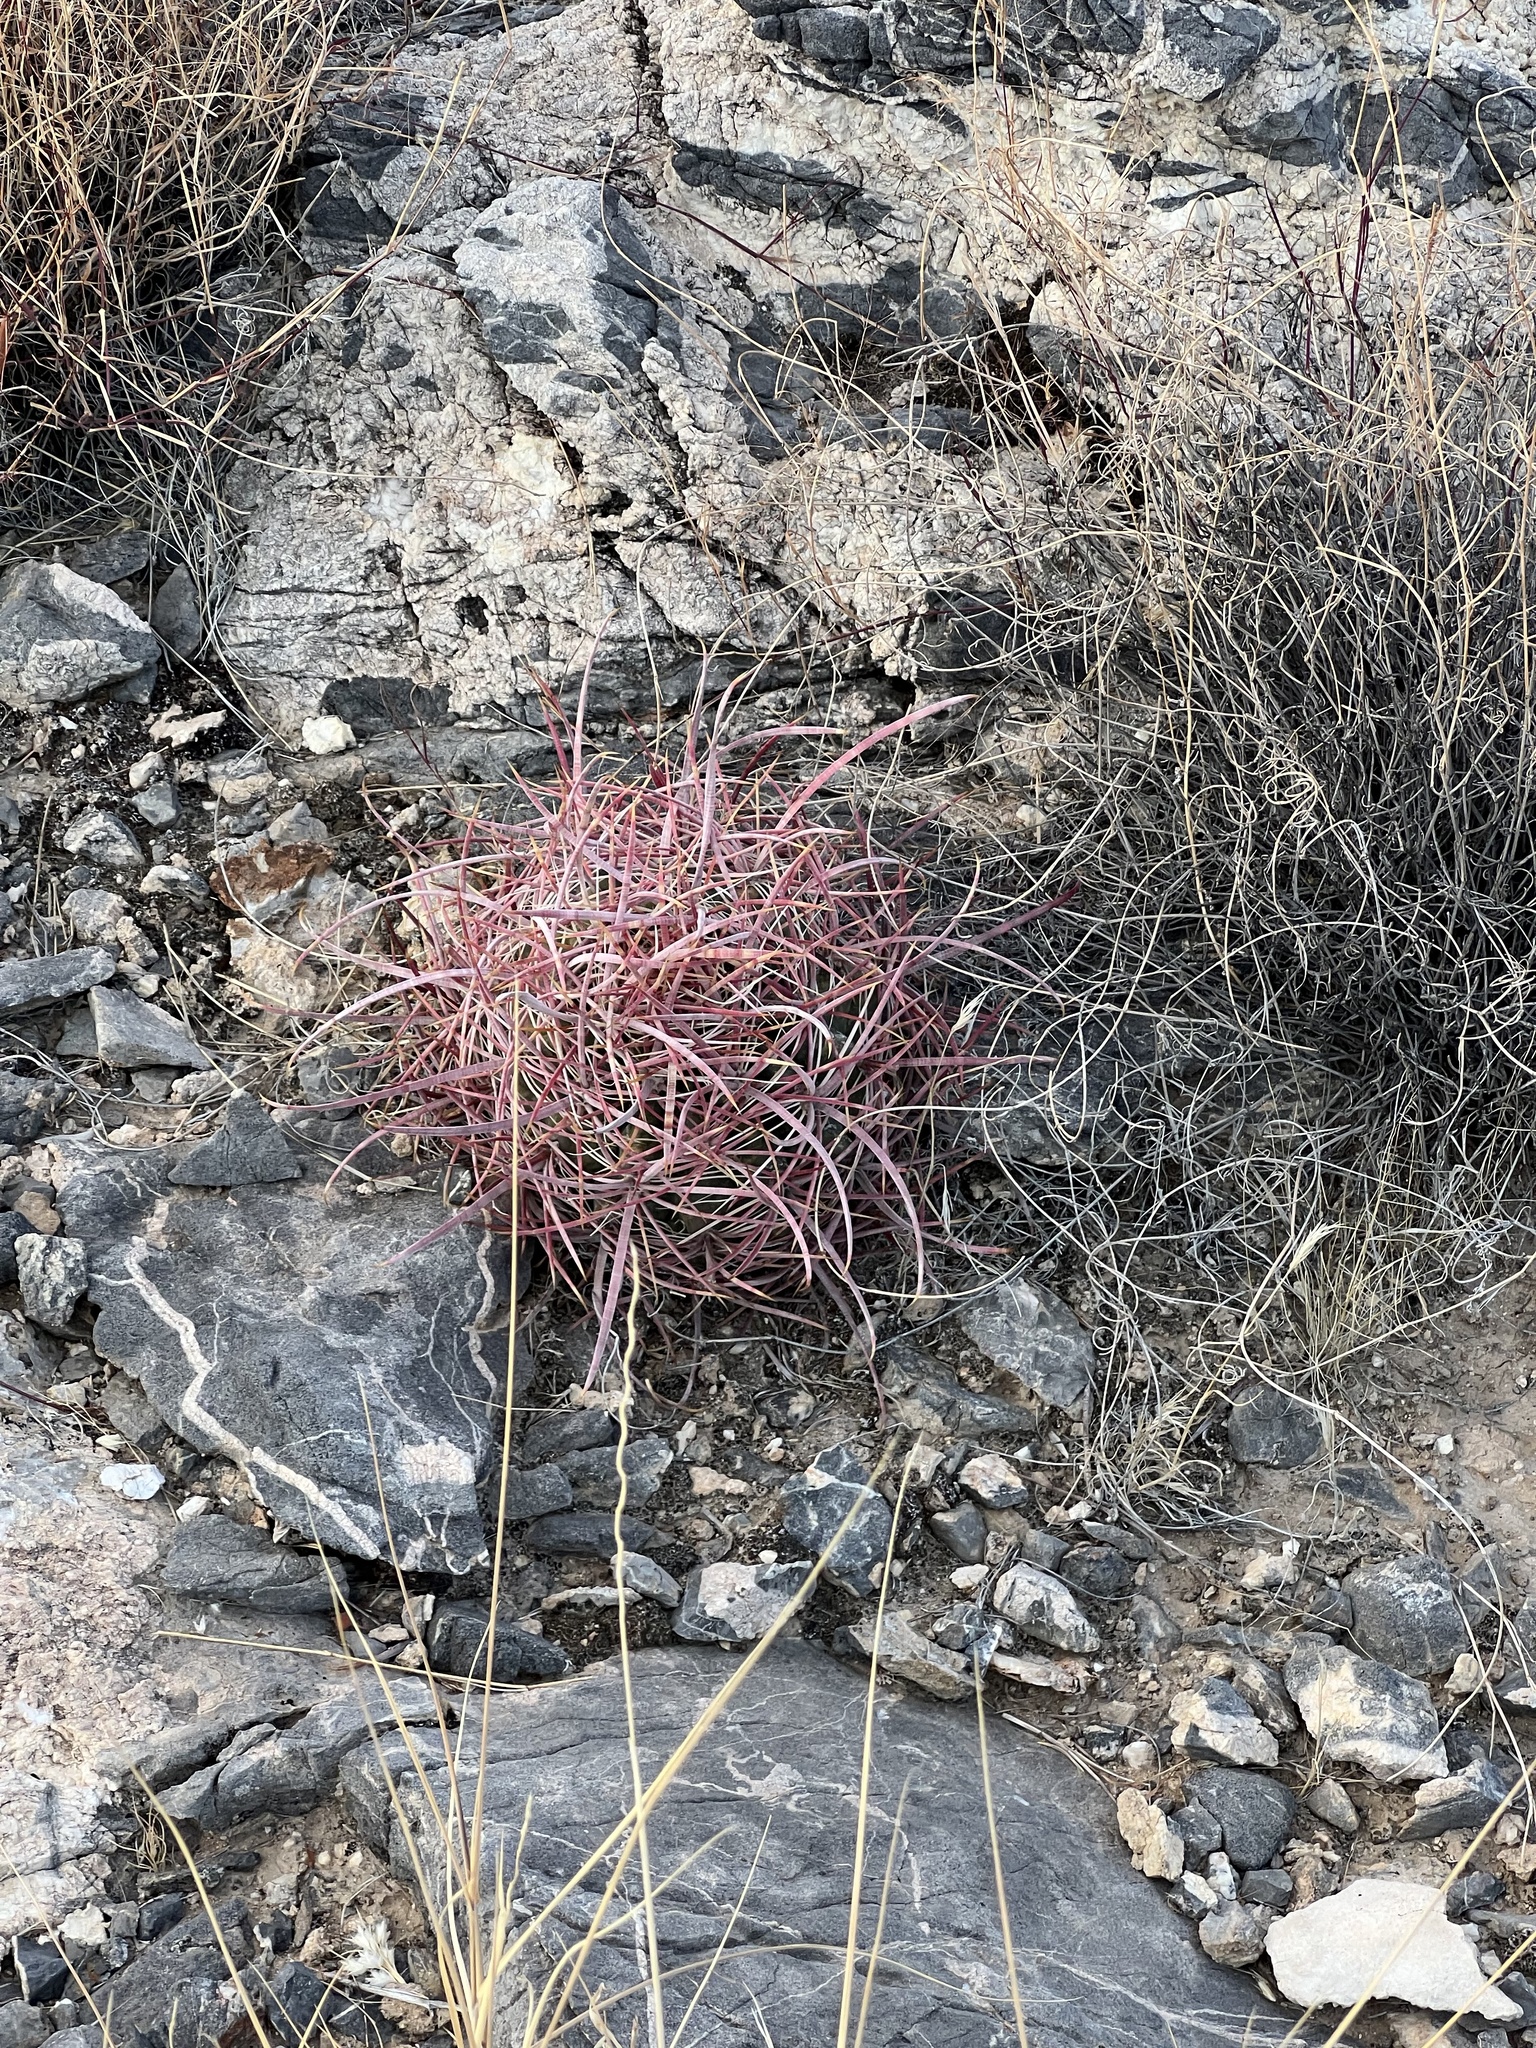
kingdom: Plantae
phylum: Tracheophyta
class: Magnoliopsida
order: Caryophyllales
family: Cactaceae
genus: Ferocactus
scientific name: Ferocactus cylindraceus
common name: California barrel cactus
